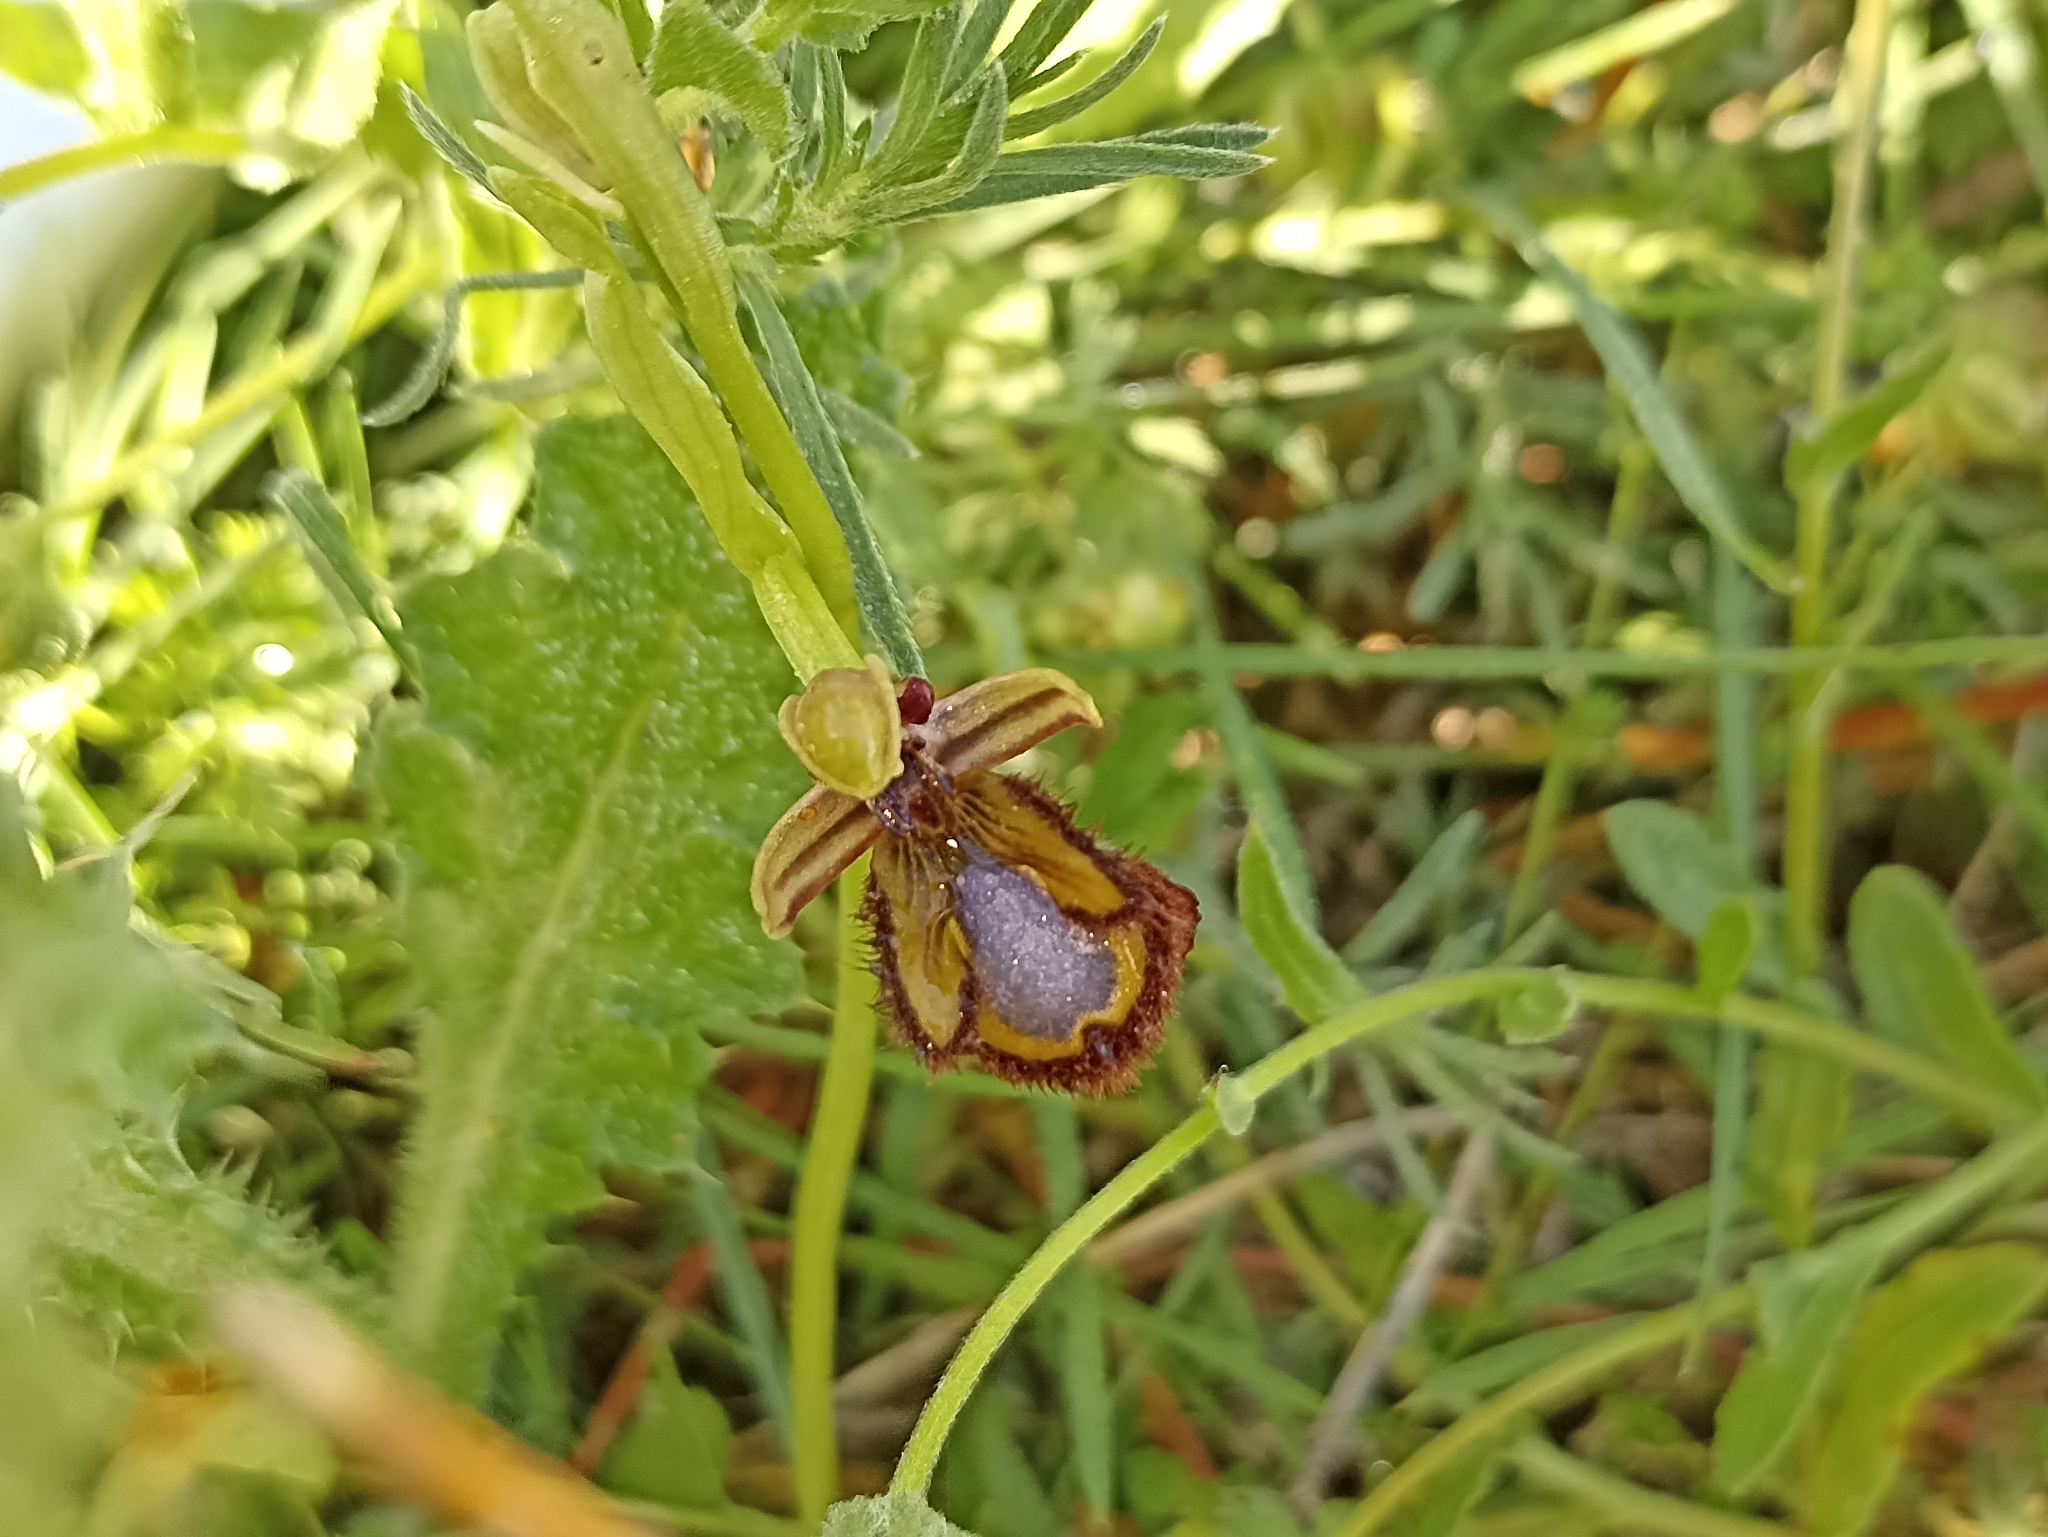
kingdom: Plantae
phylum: Tracheophyta
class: Liliopsida
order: Asparagales
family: Orchidaceae
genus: Ophrys
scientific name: Ophrys speculum
